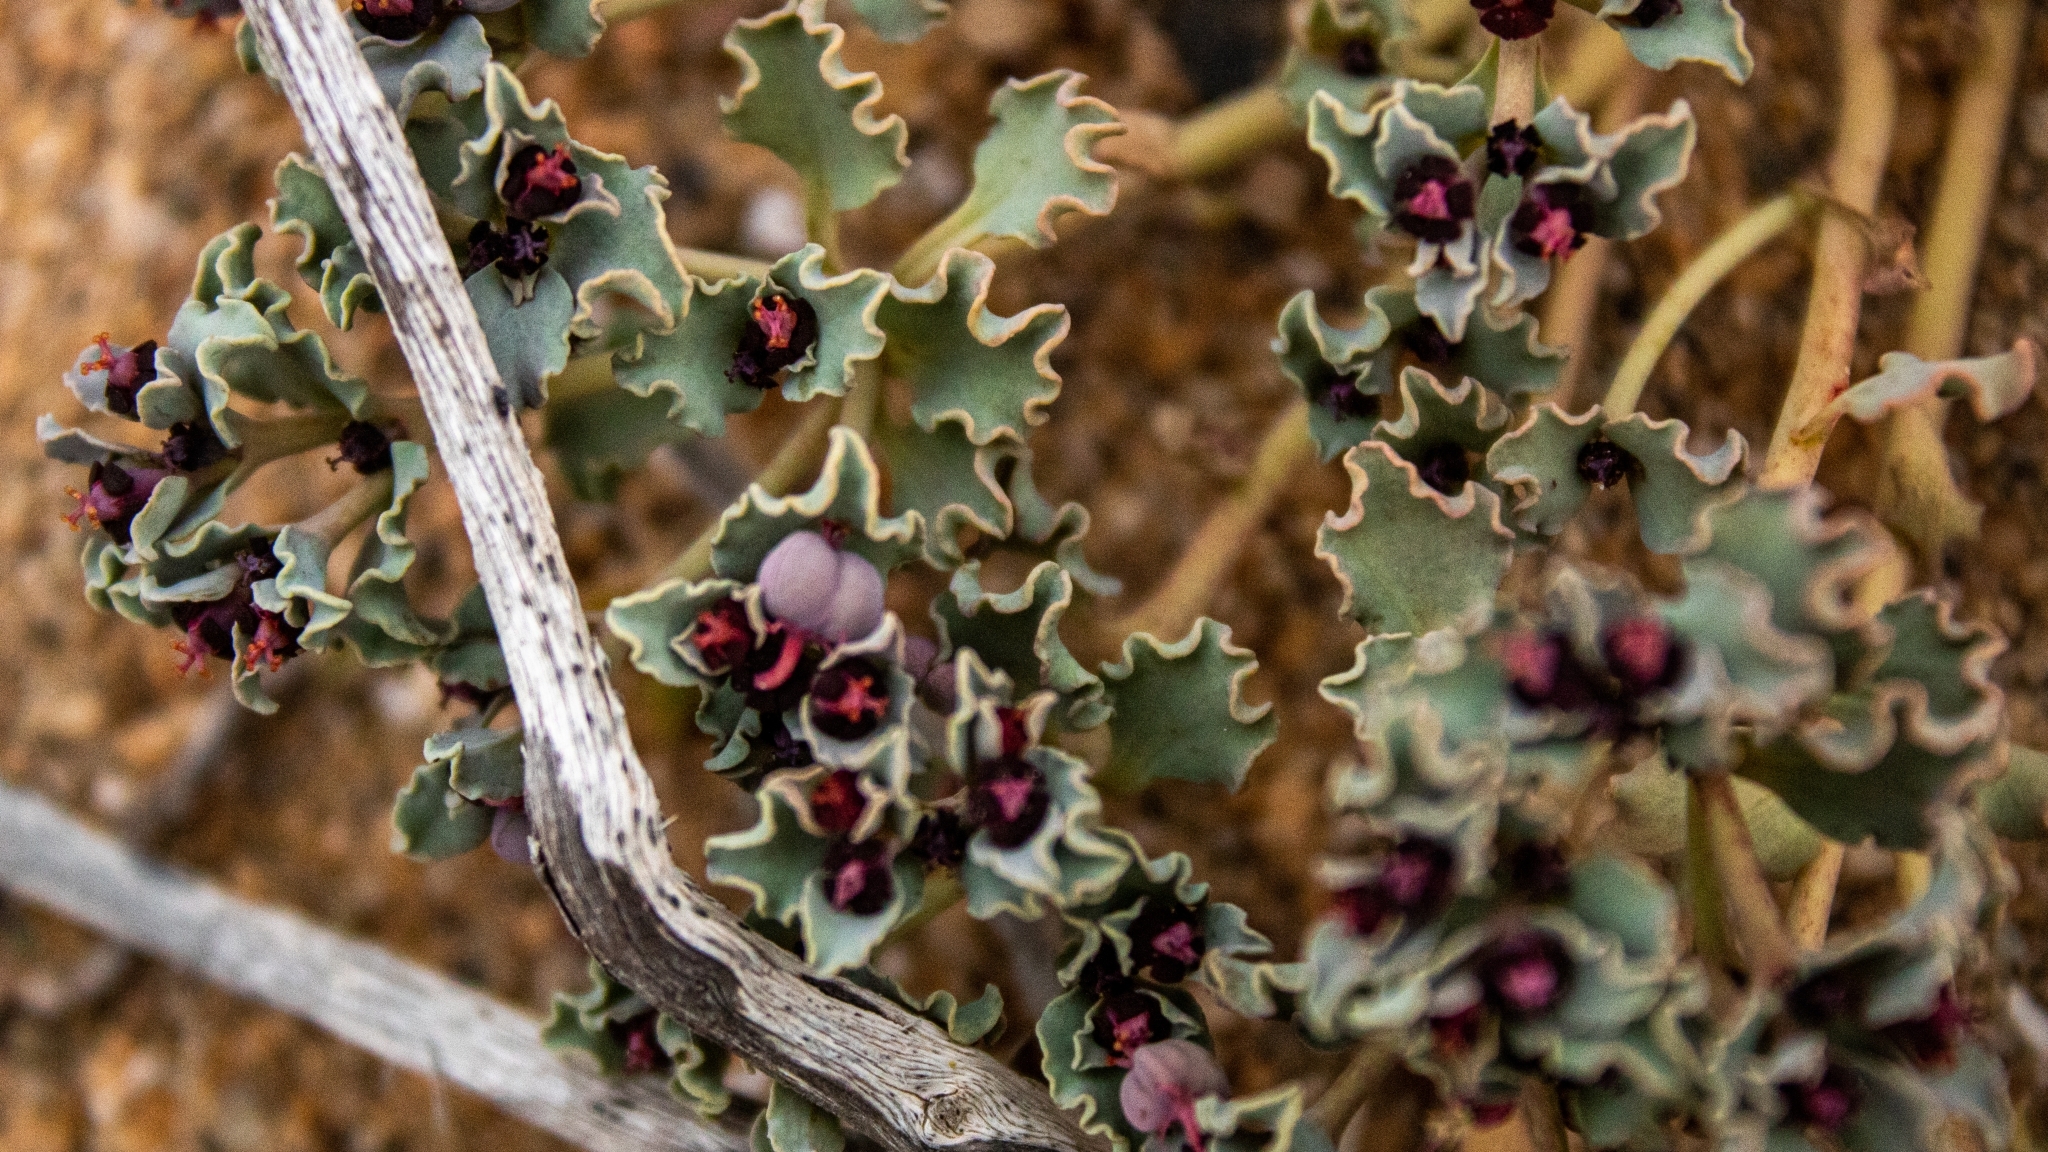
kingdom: Plantae
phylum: Tracheophyta
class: Magnoliopsida
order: Malpighiales
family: Euphorbiaceae
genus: Euphorbia
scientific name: Euphorbia copiapina
